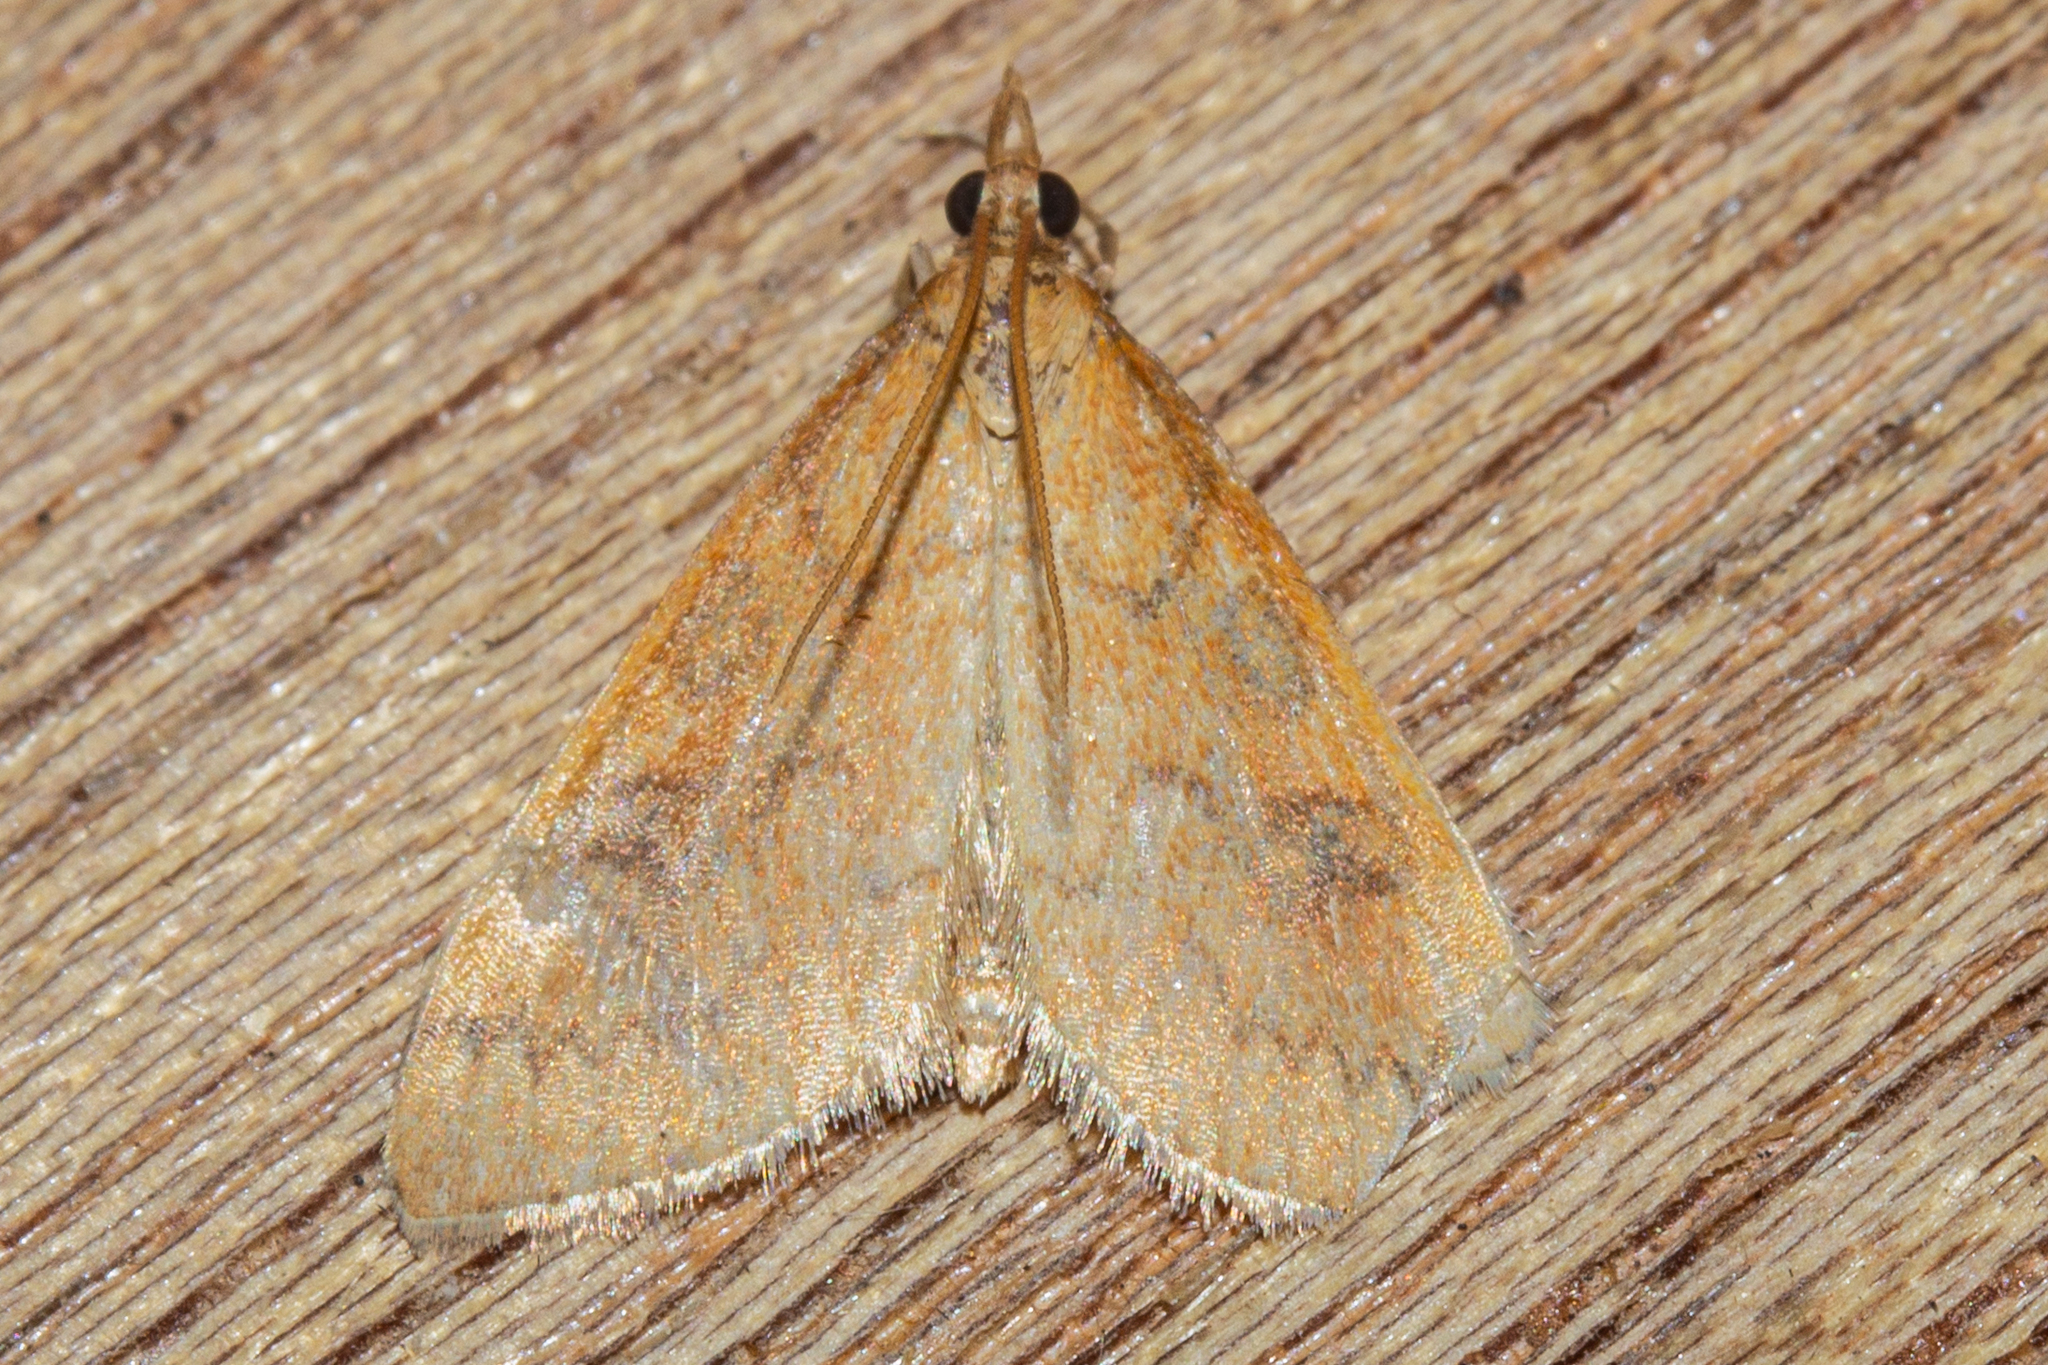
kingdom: Animalia
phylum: Arthropoda
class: Insecta
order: Lepidoptera
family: Crambidae
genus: Udea
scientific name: Udea Mnesictena flavidalis
